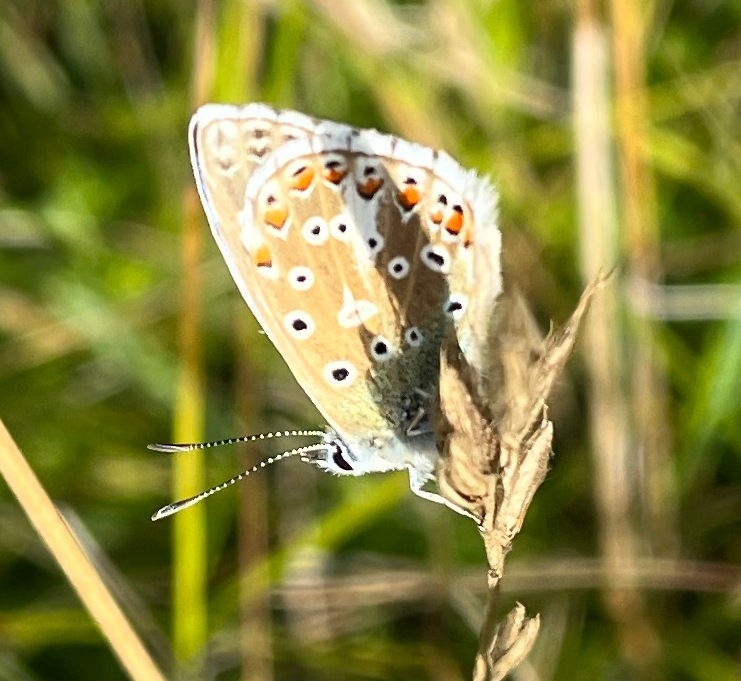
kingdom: Animalia
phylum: Arthropoda
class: Insecta
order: Lepidoptera
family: Lycaenidae
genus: Polyommatus
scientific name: Polyommatus icarus
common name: Common blue
